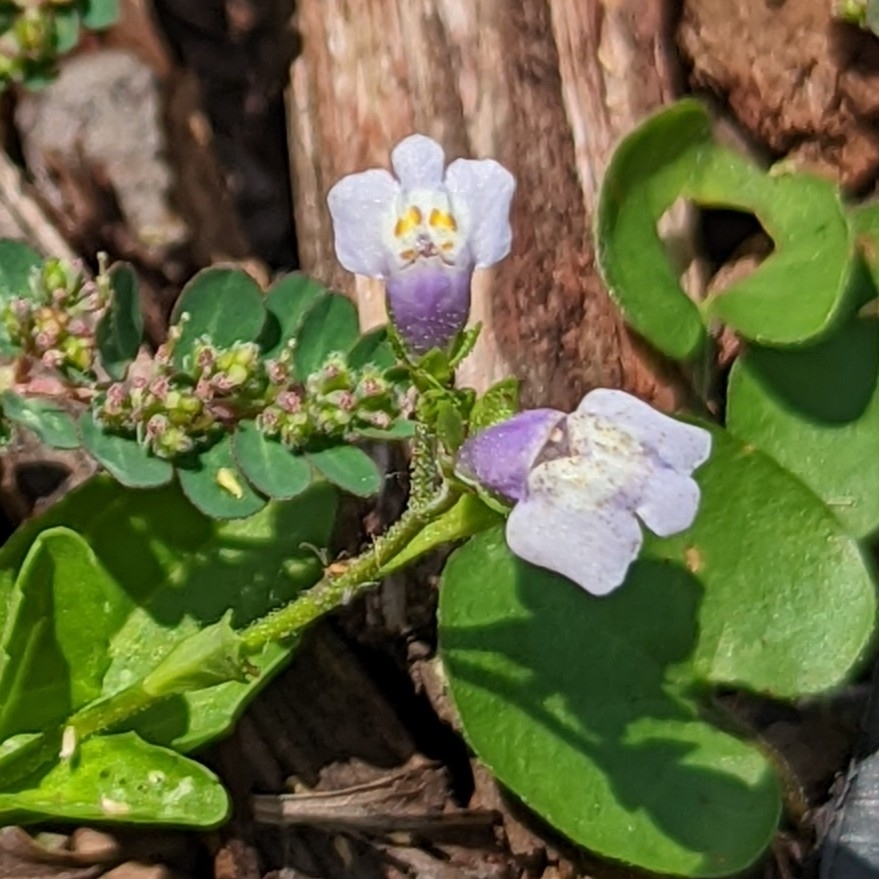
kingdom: Plantae
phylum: Tracheophyta
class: Magnoliopsida
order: Lamiales
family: Mazaceae
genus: Mazus
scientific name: Mazus pumilus
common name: Japanese mazus
